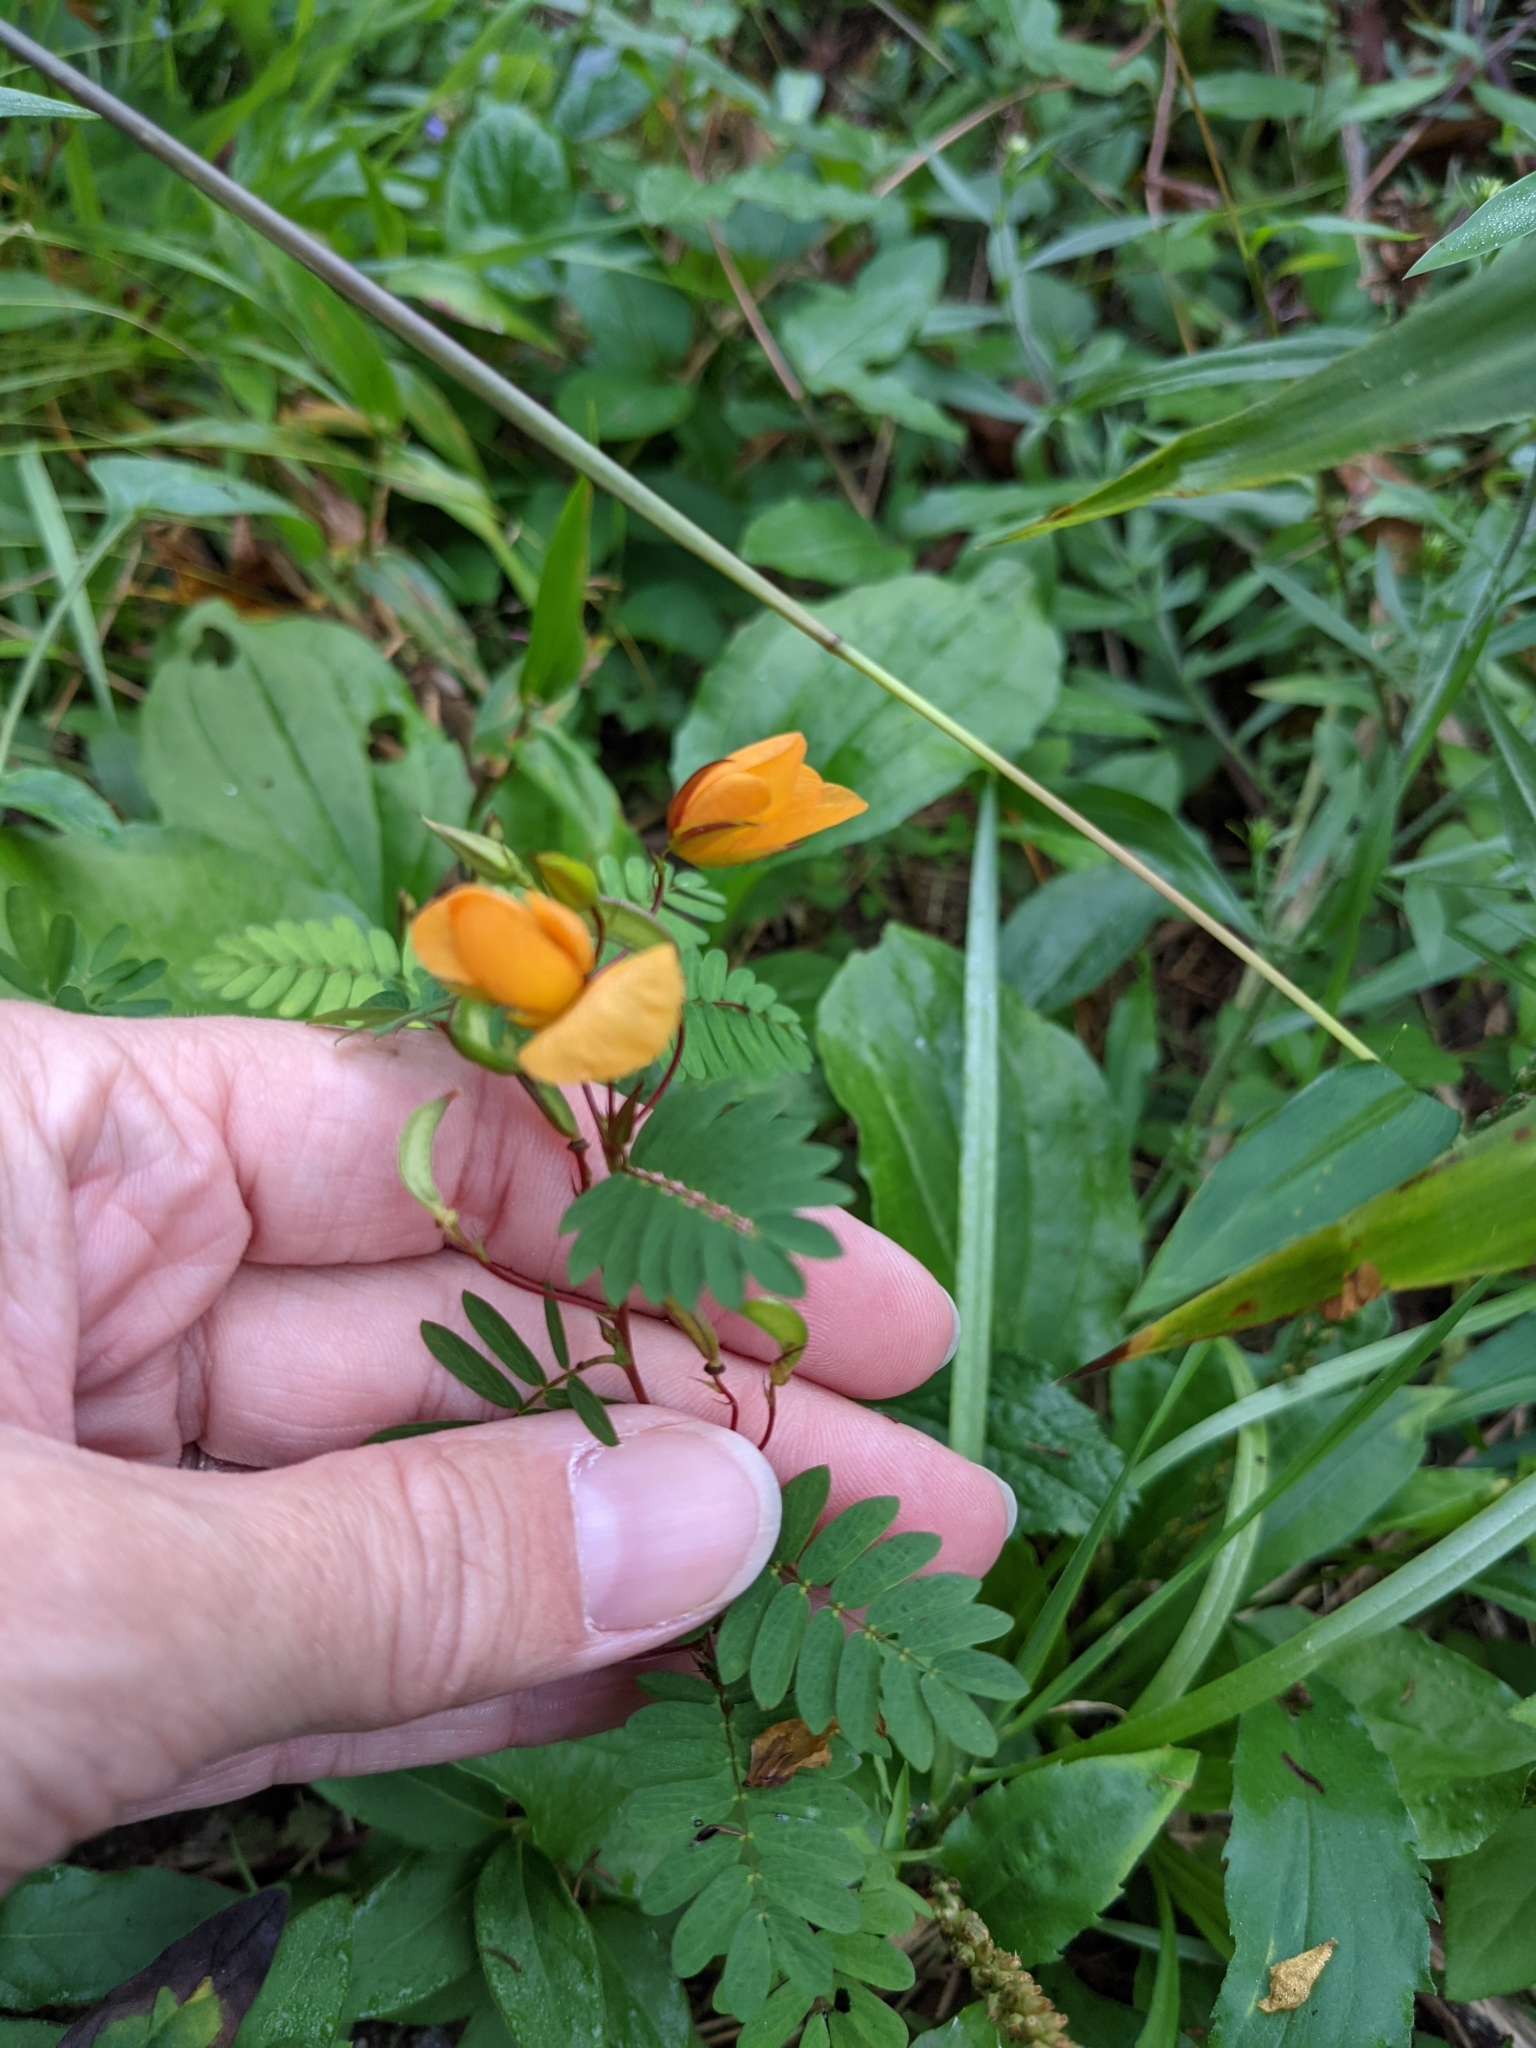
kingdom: Plantae
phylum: Tracheophyta
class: Magnoliopsida
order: Fabales
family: Fabaceae
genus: Chamaecrista
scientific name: Chamaecrista fasciculata
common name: Golden cassia
